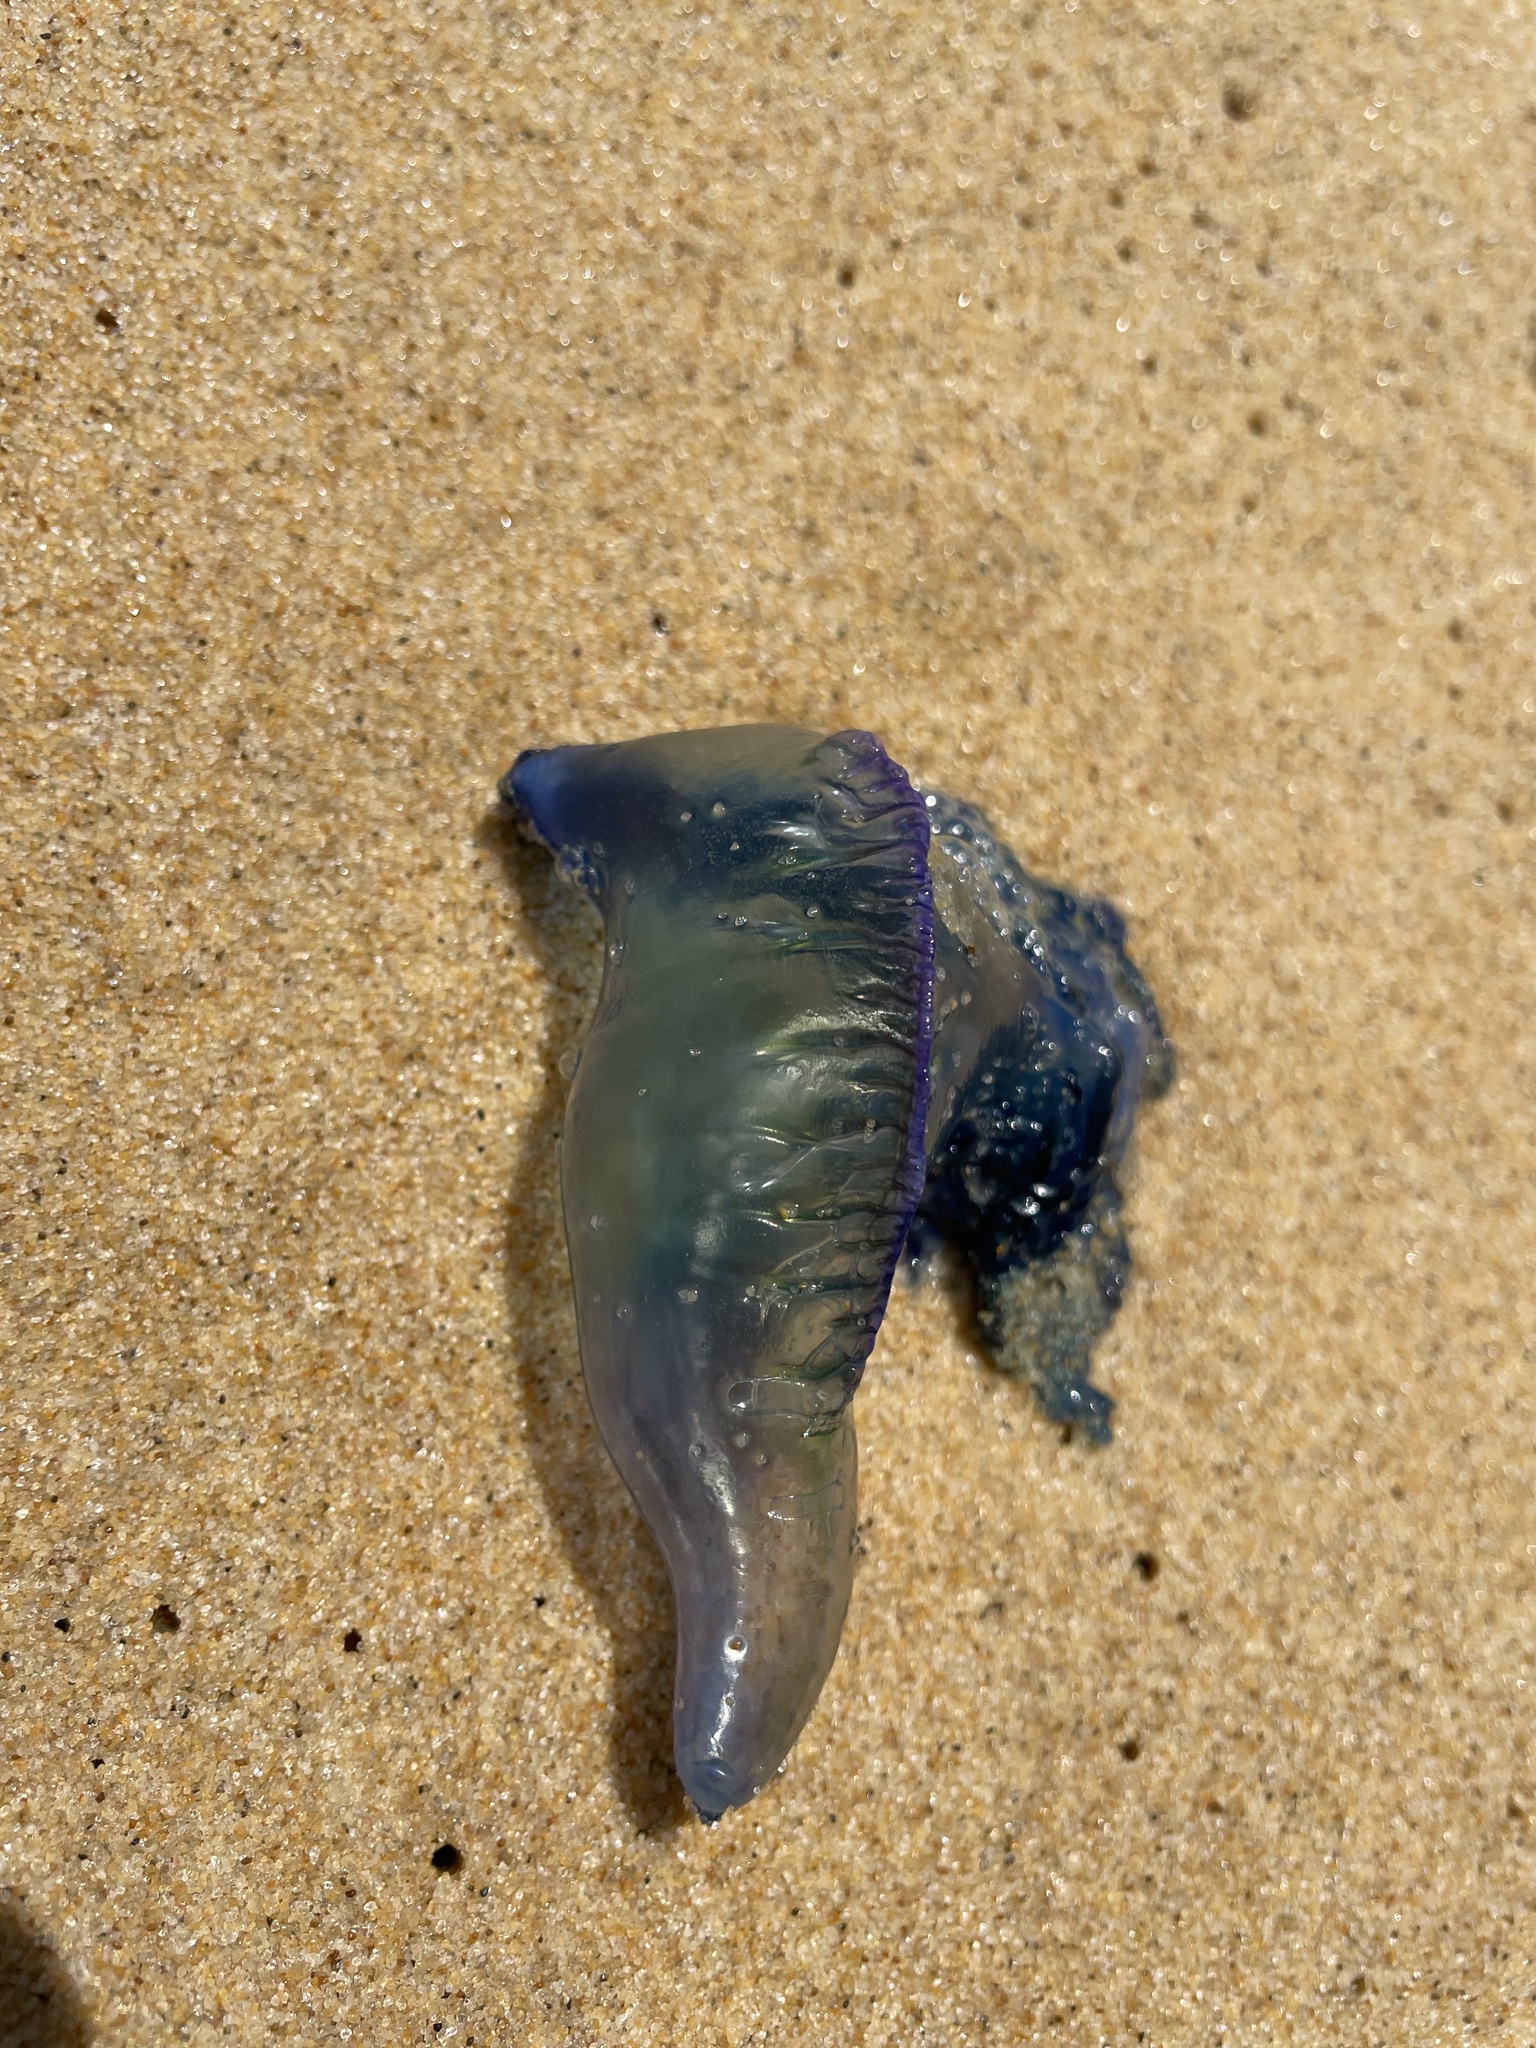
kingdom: Animalia
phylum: Cnidaria
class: Hydrozoa
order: Siphonophorae
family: Physaliidae
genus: Physalia
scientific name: Physalia physalis
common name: Portuguese man-of-war
